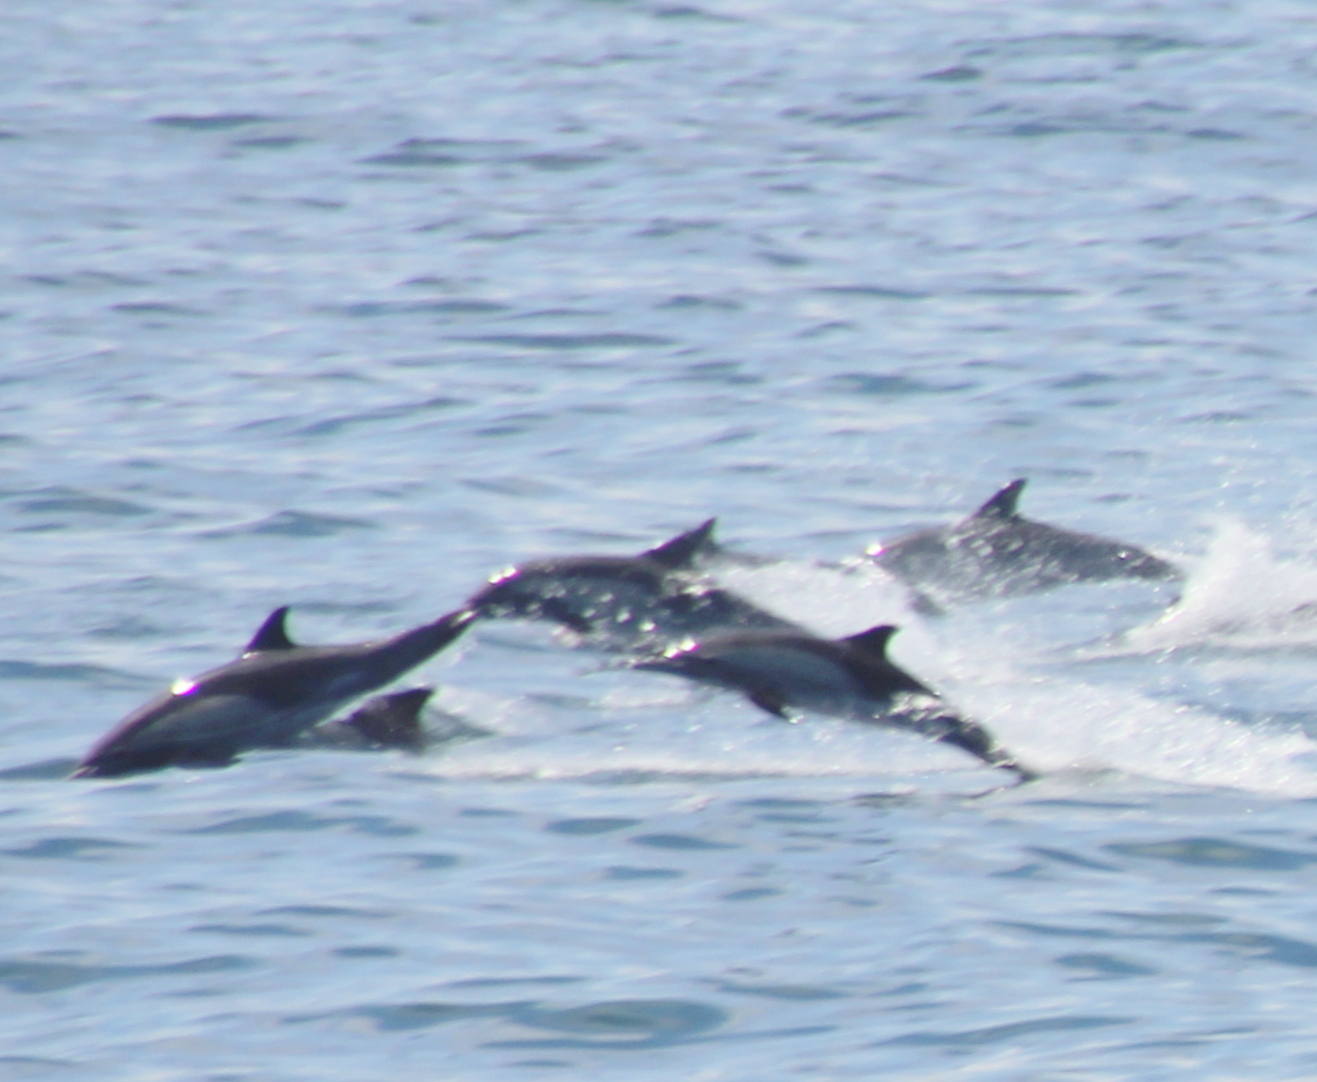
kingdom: Animalia
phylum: Chordata
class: Mammalia
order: Cetacea
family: Delphinidae
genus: Delphinus
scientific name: Delphinus delphis
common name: Common dolphin
